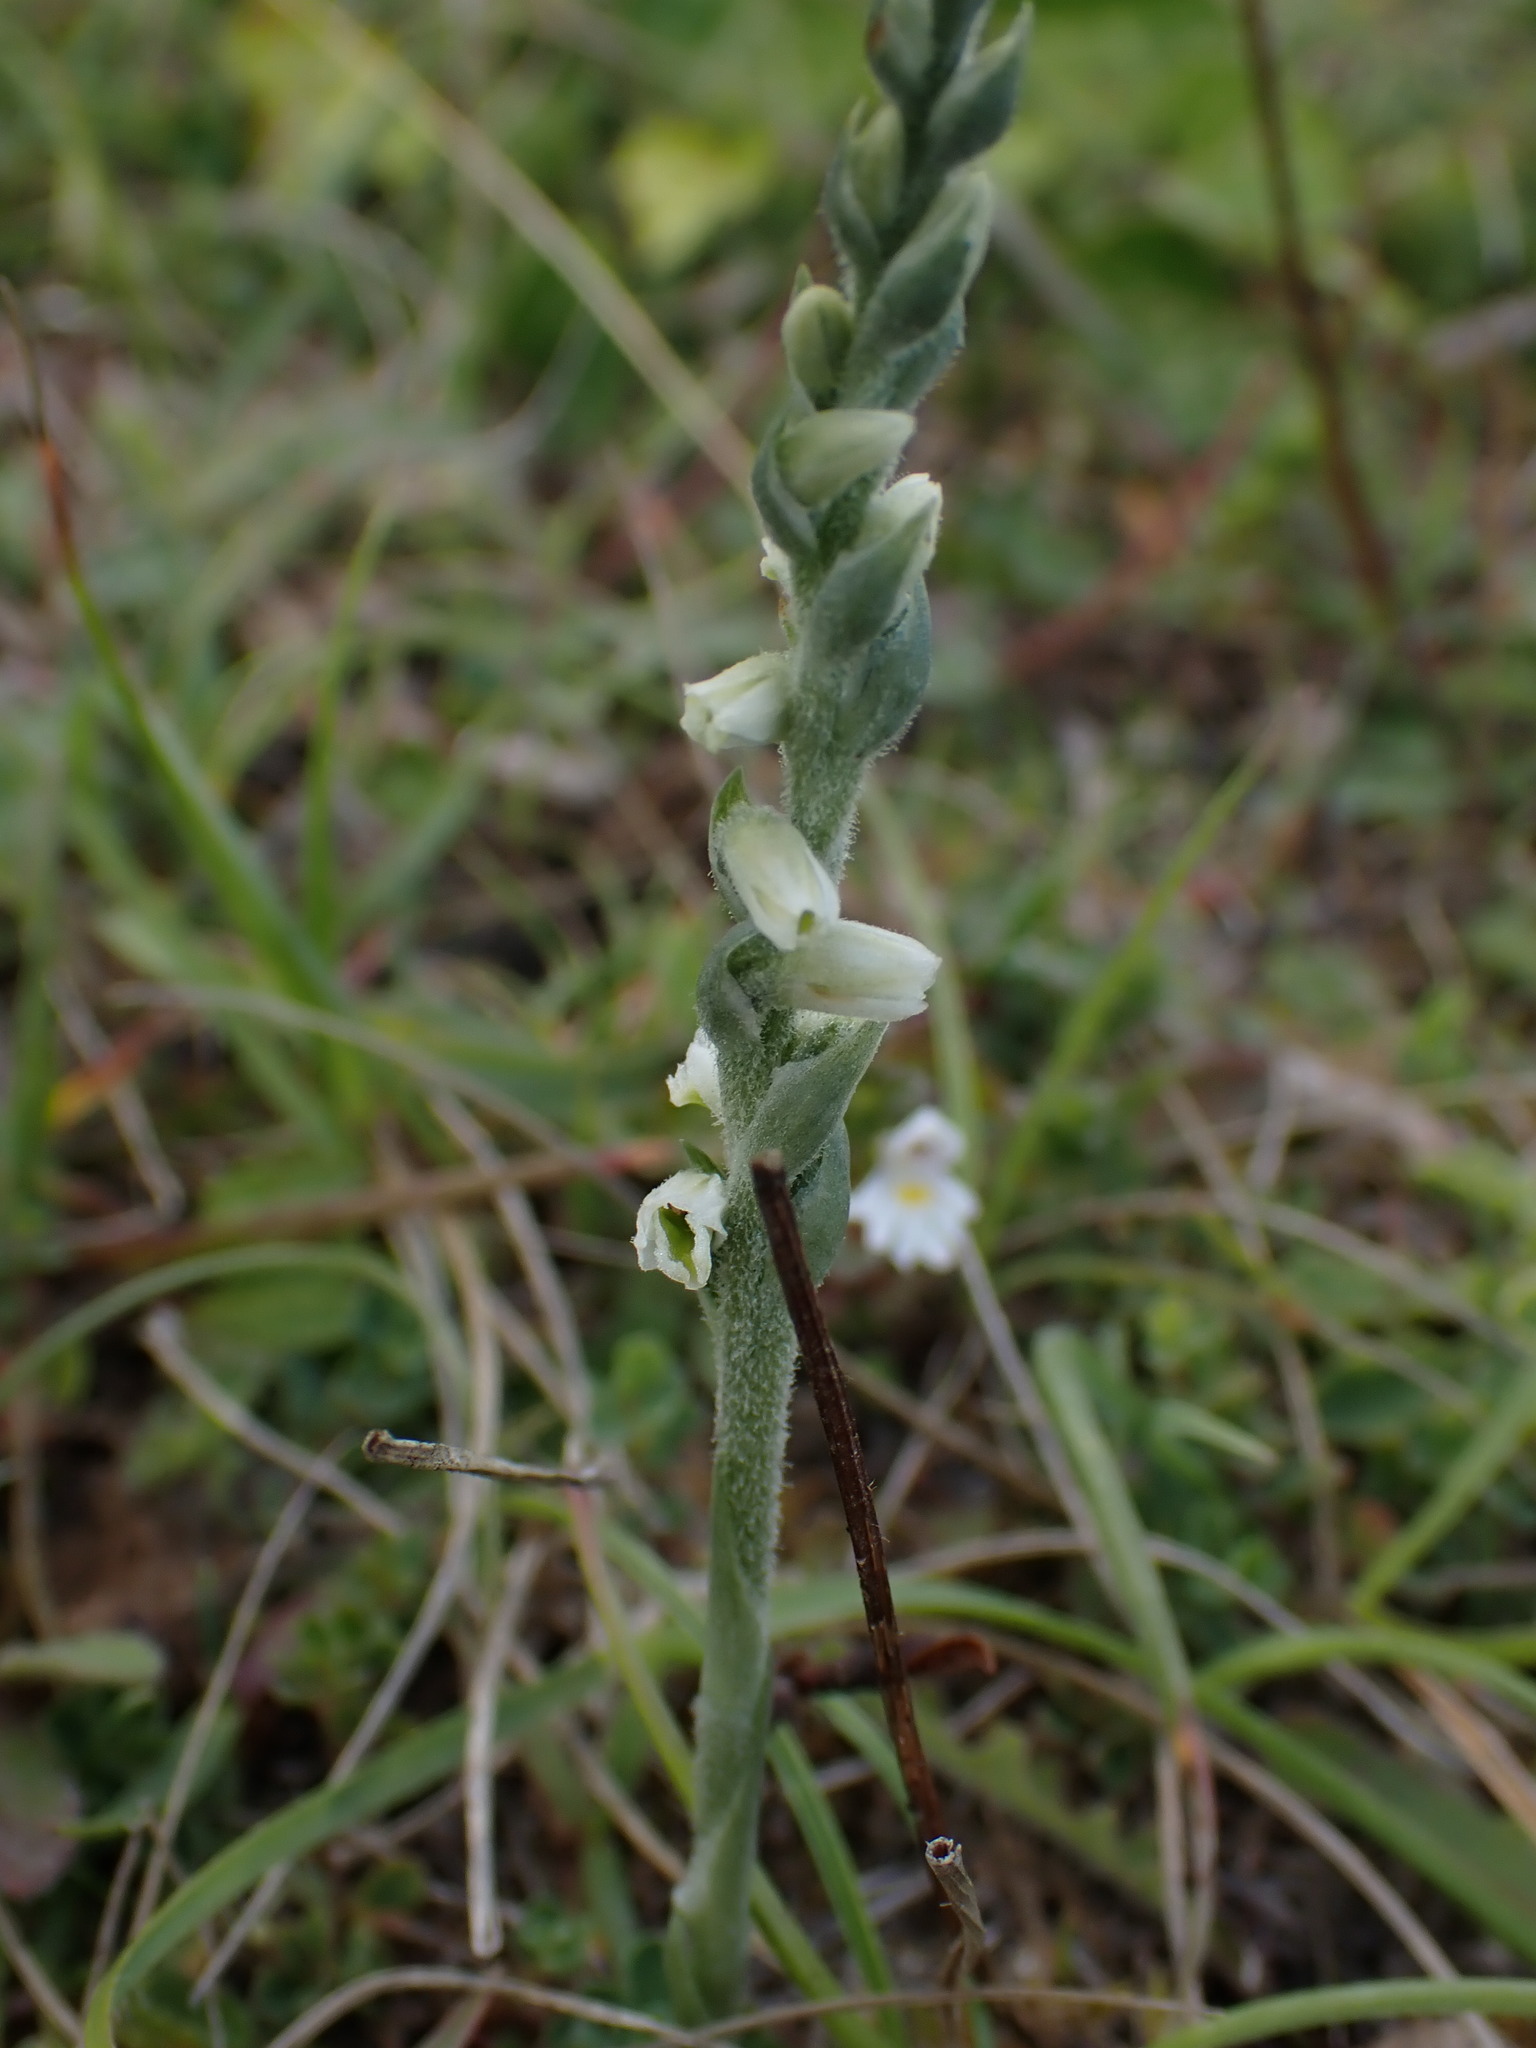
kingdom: Plantae
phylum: Tracheophyta
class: Liliopsida
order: Asparagales
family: Orchidaceae
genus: Spiranthes
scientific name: Spiranthes spiralis
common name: Autumn lady's-tresses
